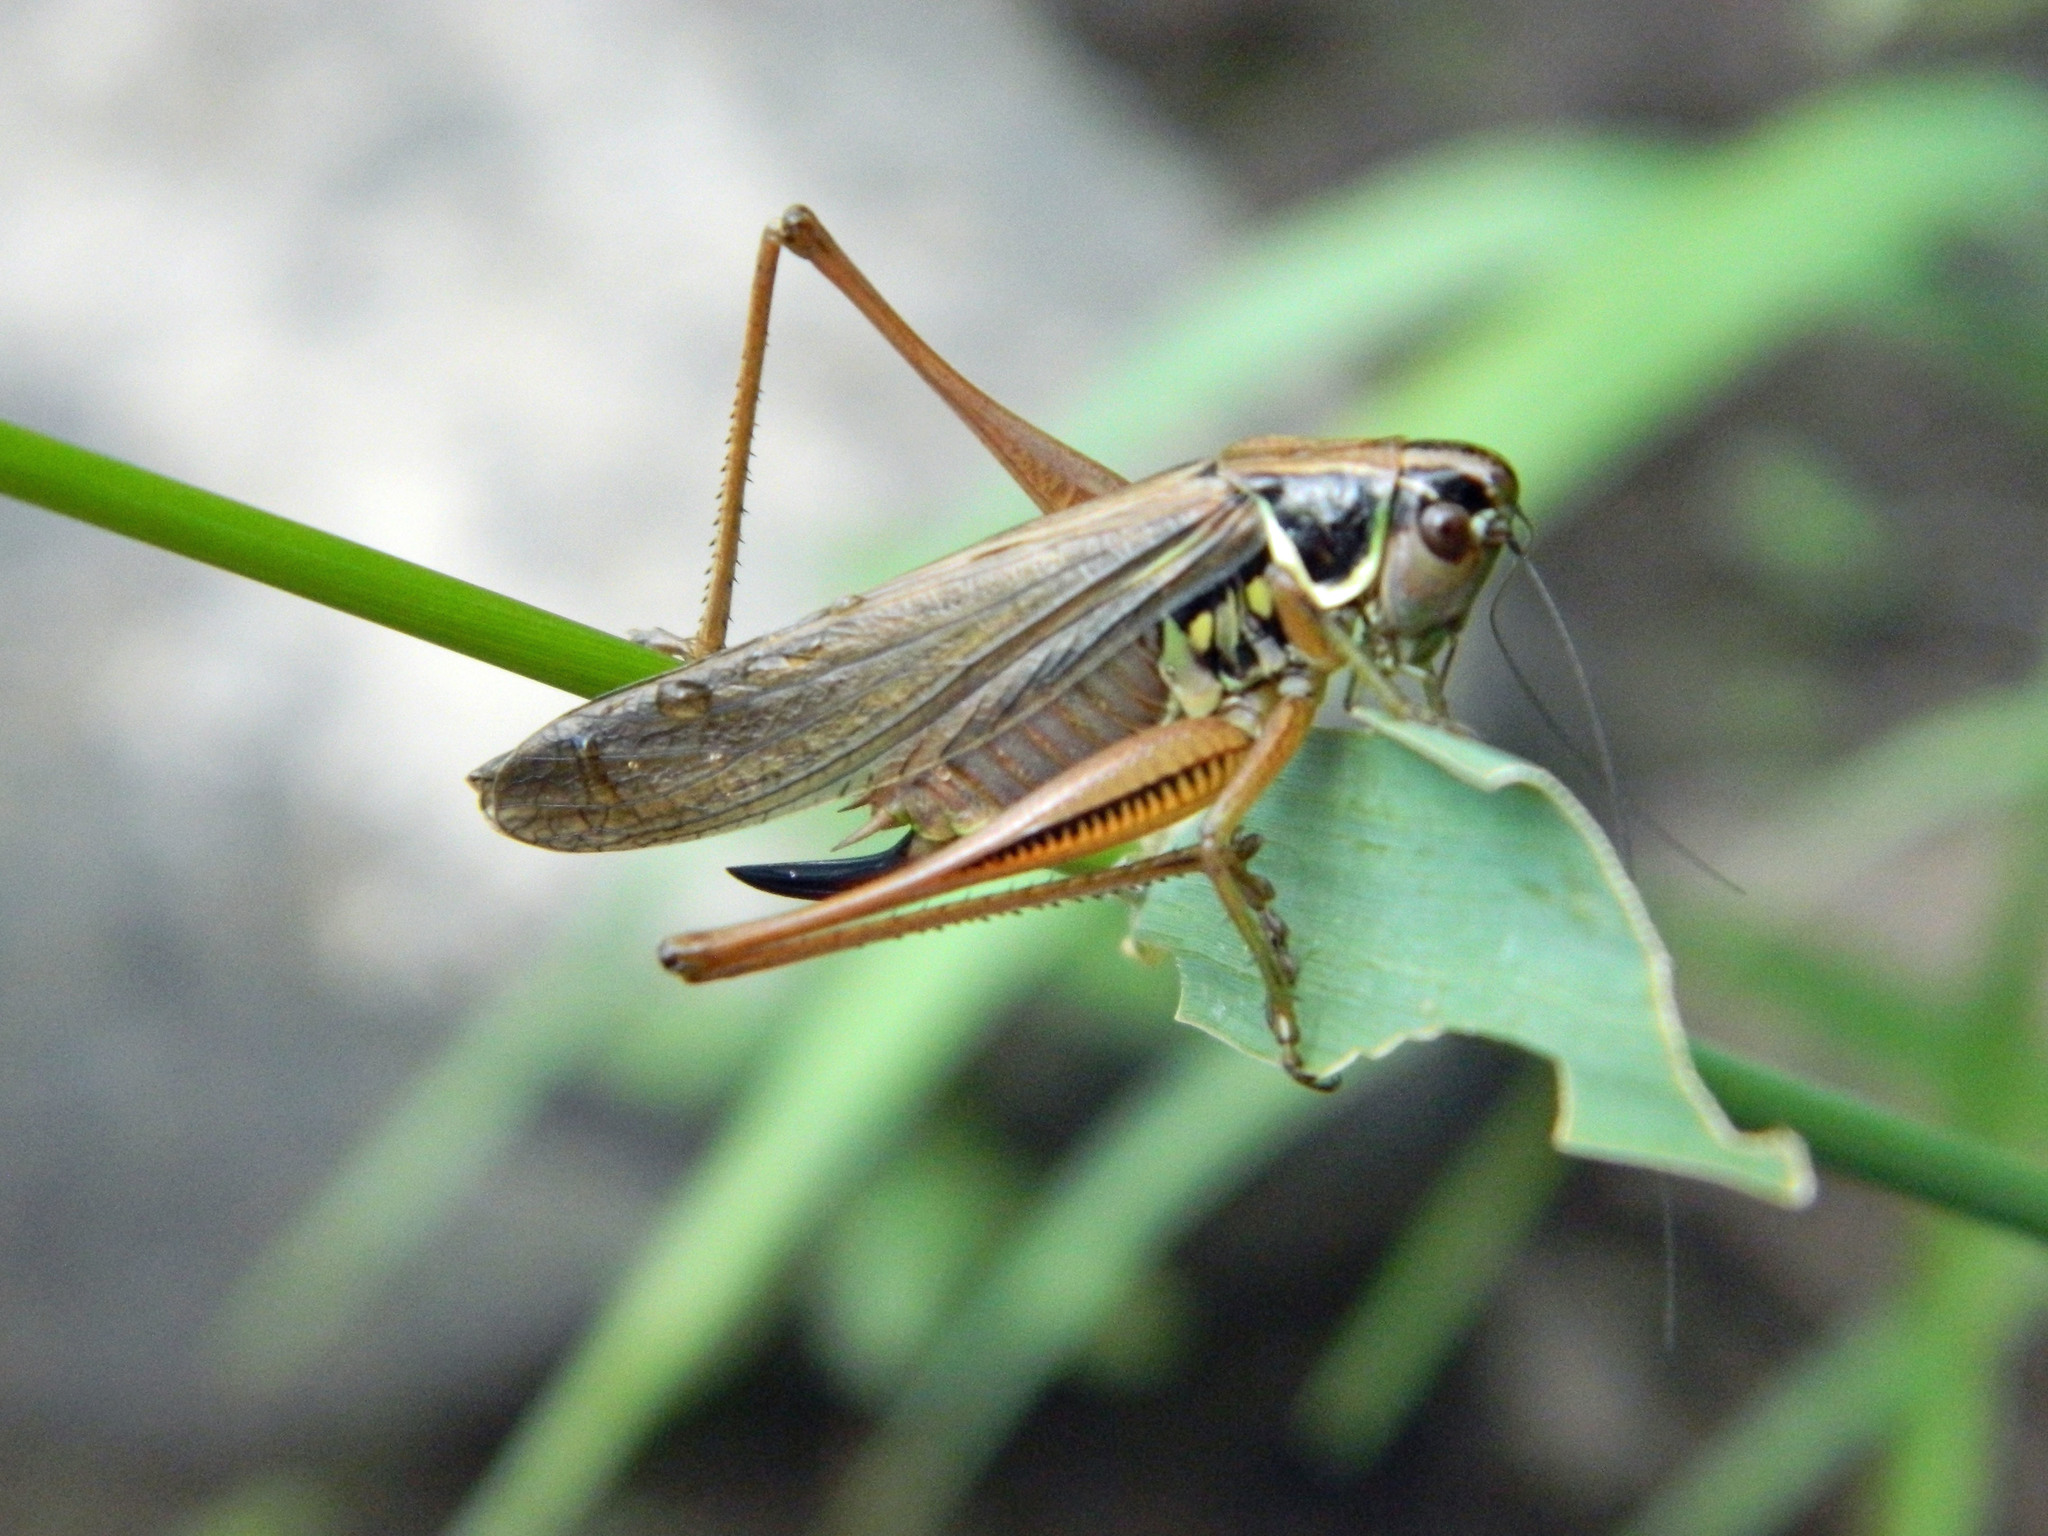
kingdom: Animalia
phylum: Arthropoda
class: Insecta
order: Orthoptera
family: Tettigoniidae
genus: Roeseliana
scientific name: Roeseliana roeselii
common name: Roesel's bush cricket
